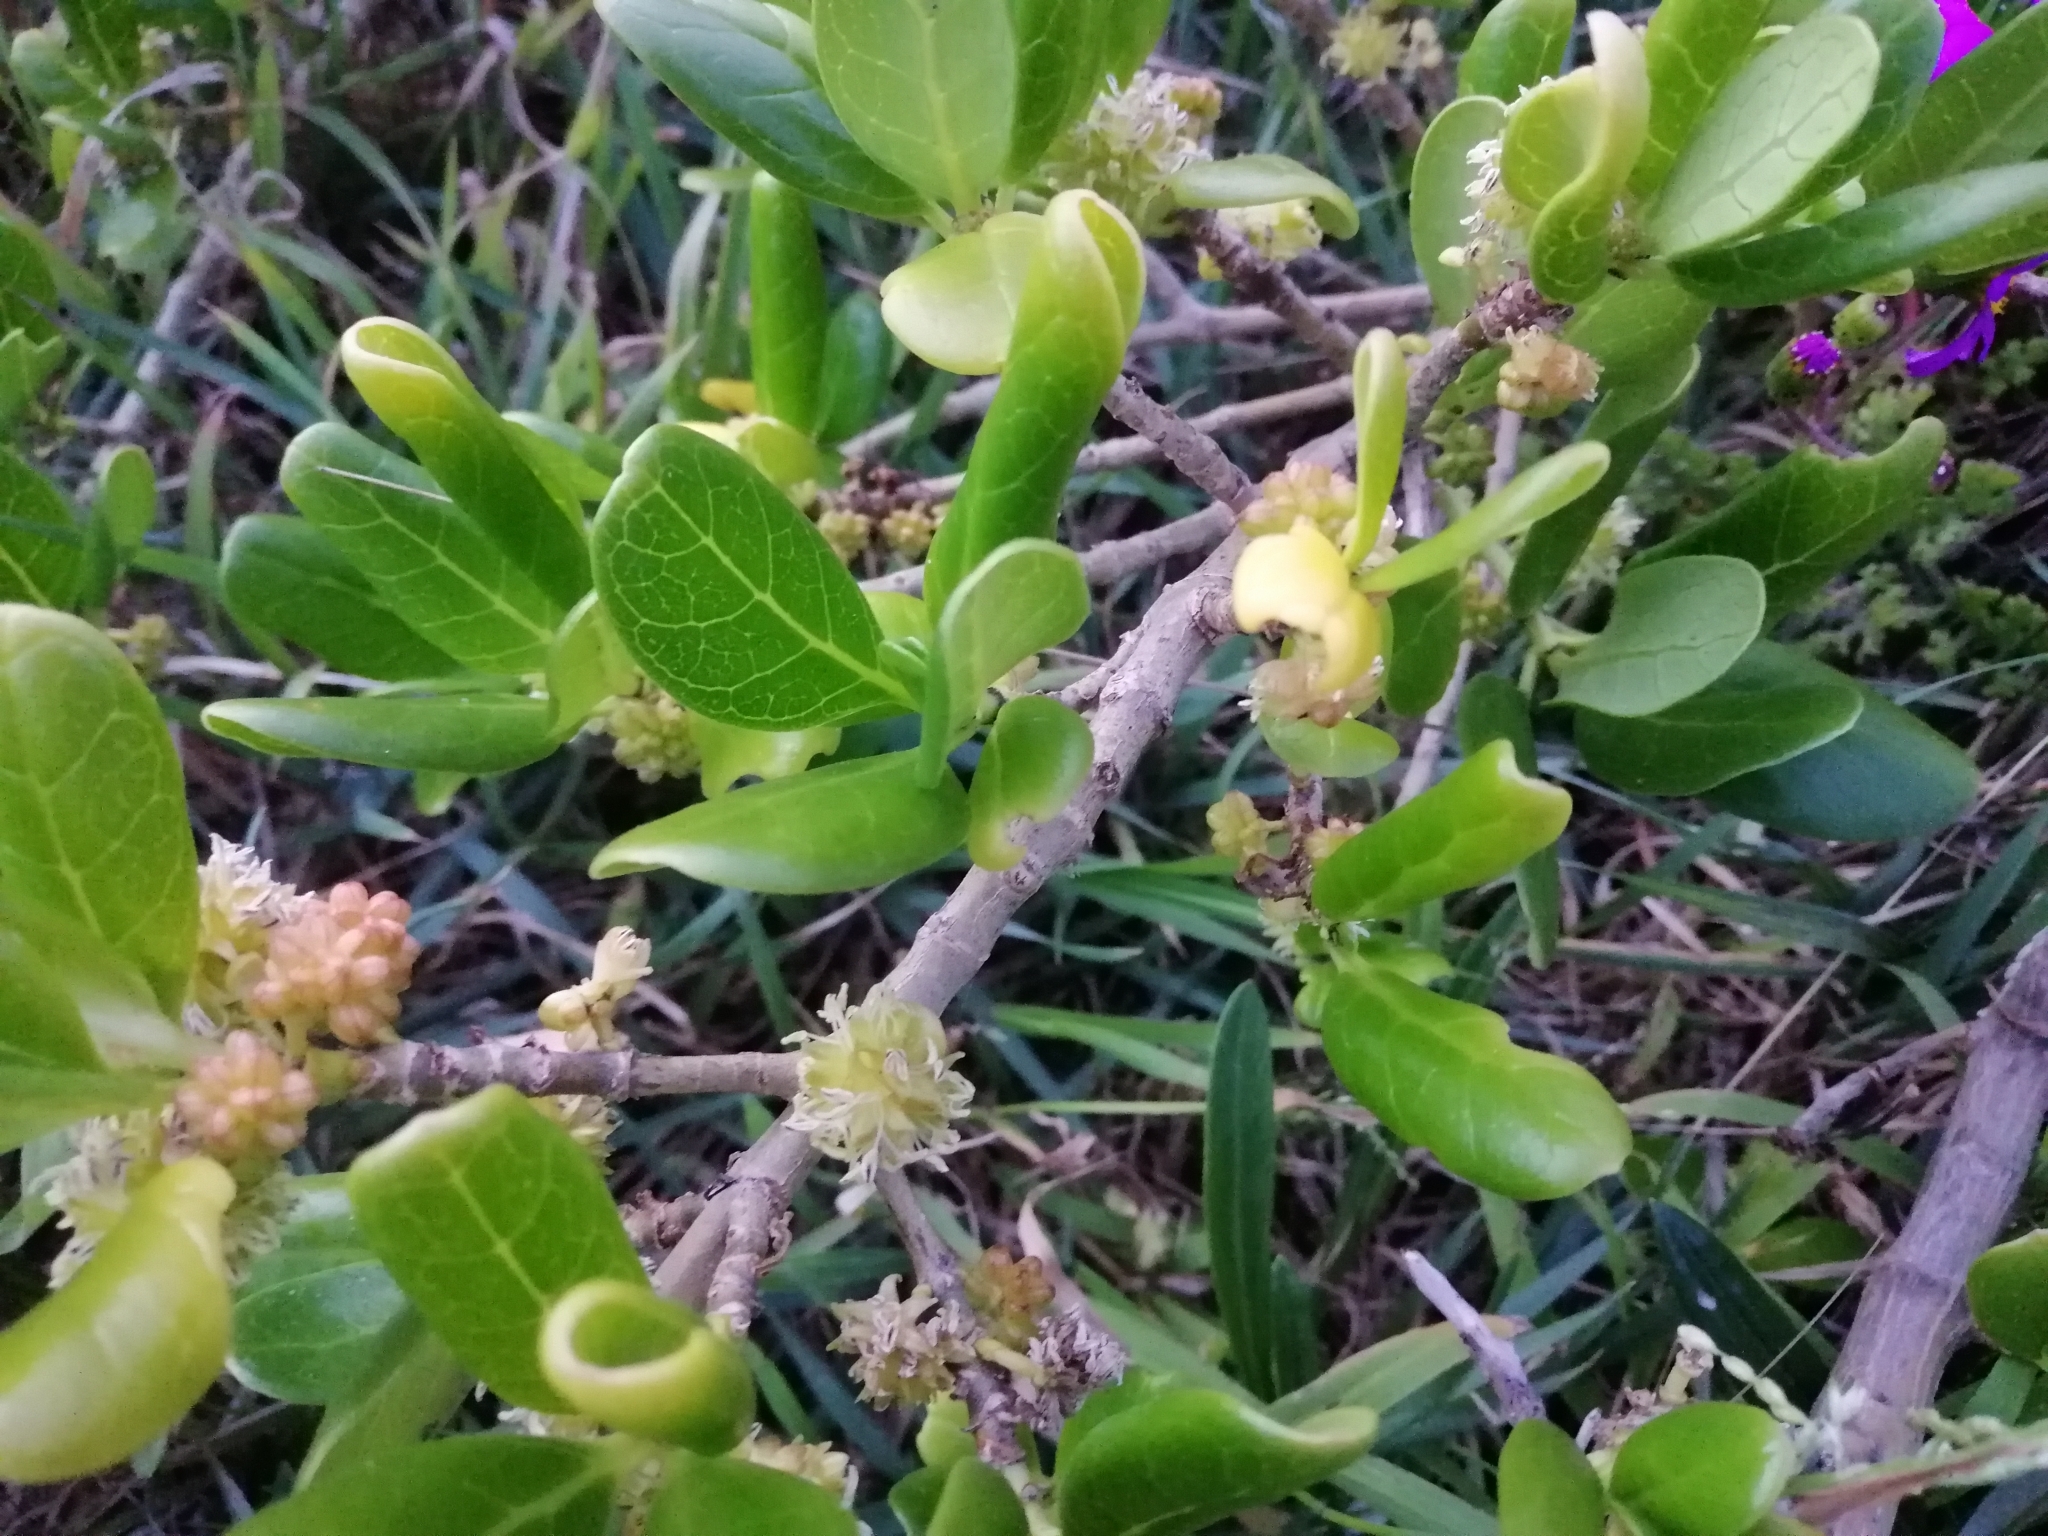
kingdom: Plantae
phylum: Tracheophyta
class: Magnoliopsida
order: Gentianales
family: Rubiaceae
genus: Coprosma
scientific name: Coprosma repens
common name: Tree bedstraw
